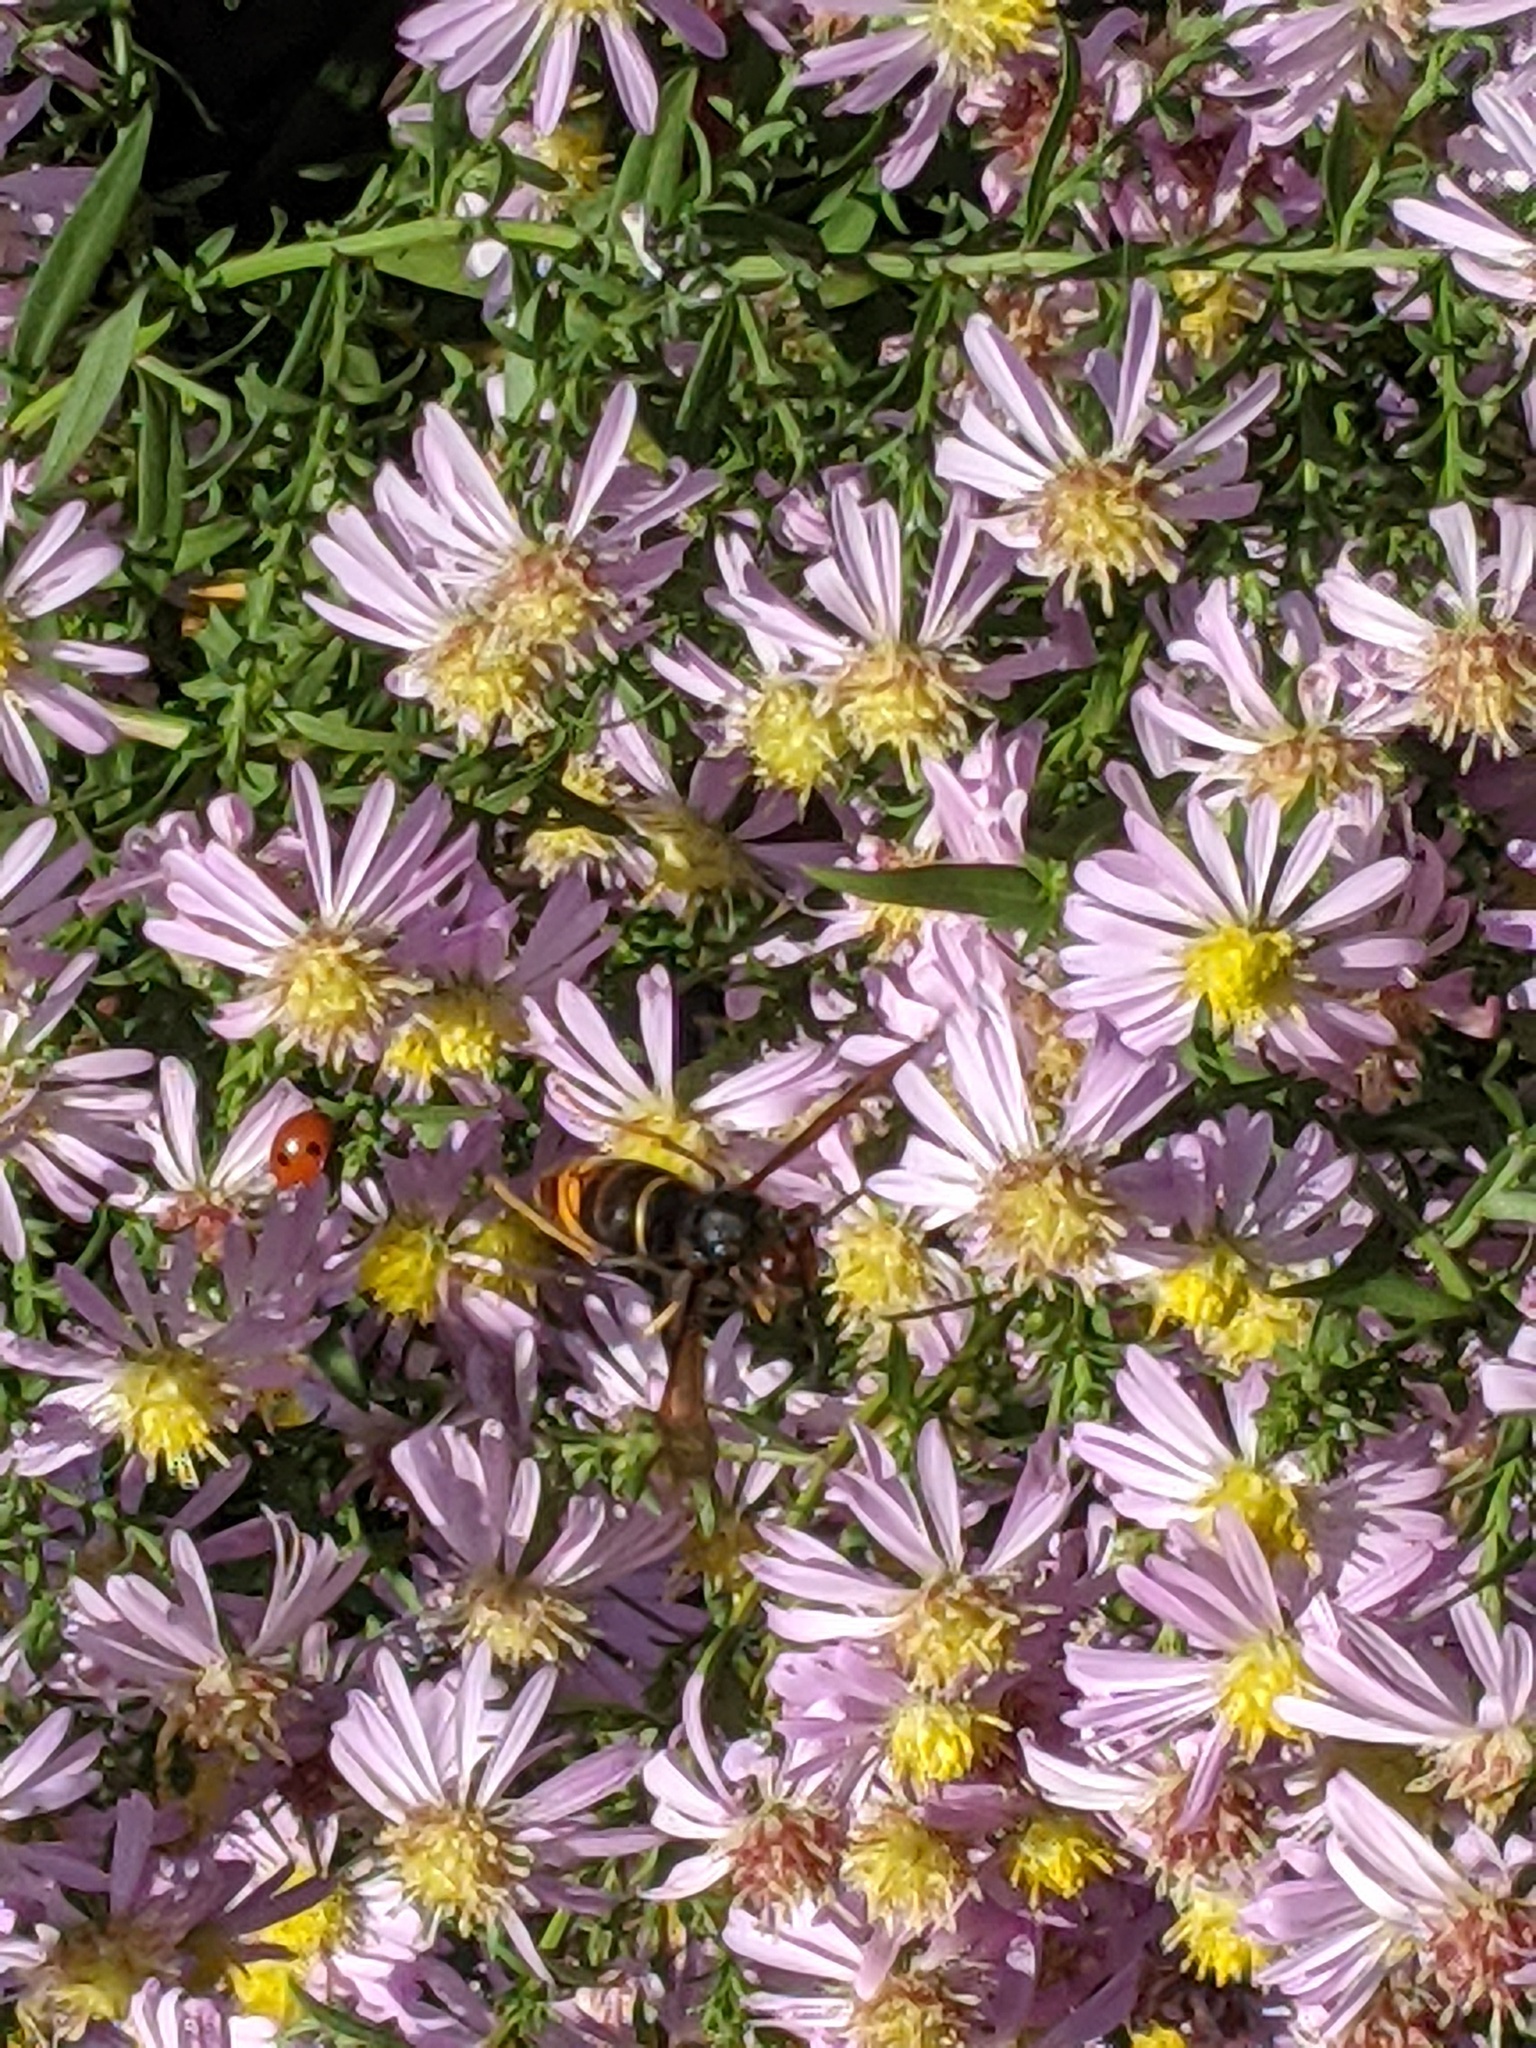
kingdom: Animalia
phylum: Arthropoda
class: Insecta
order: Hymenoptera
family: Vespidae
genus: Vespa
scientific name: Vespa velutina
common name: Asian hornet
